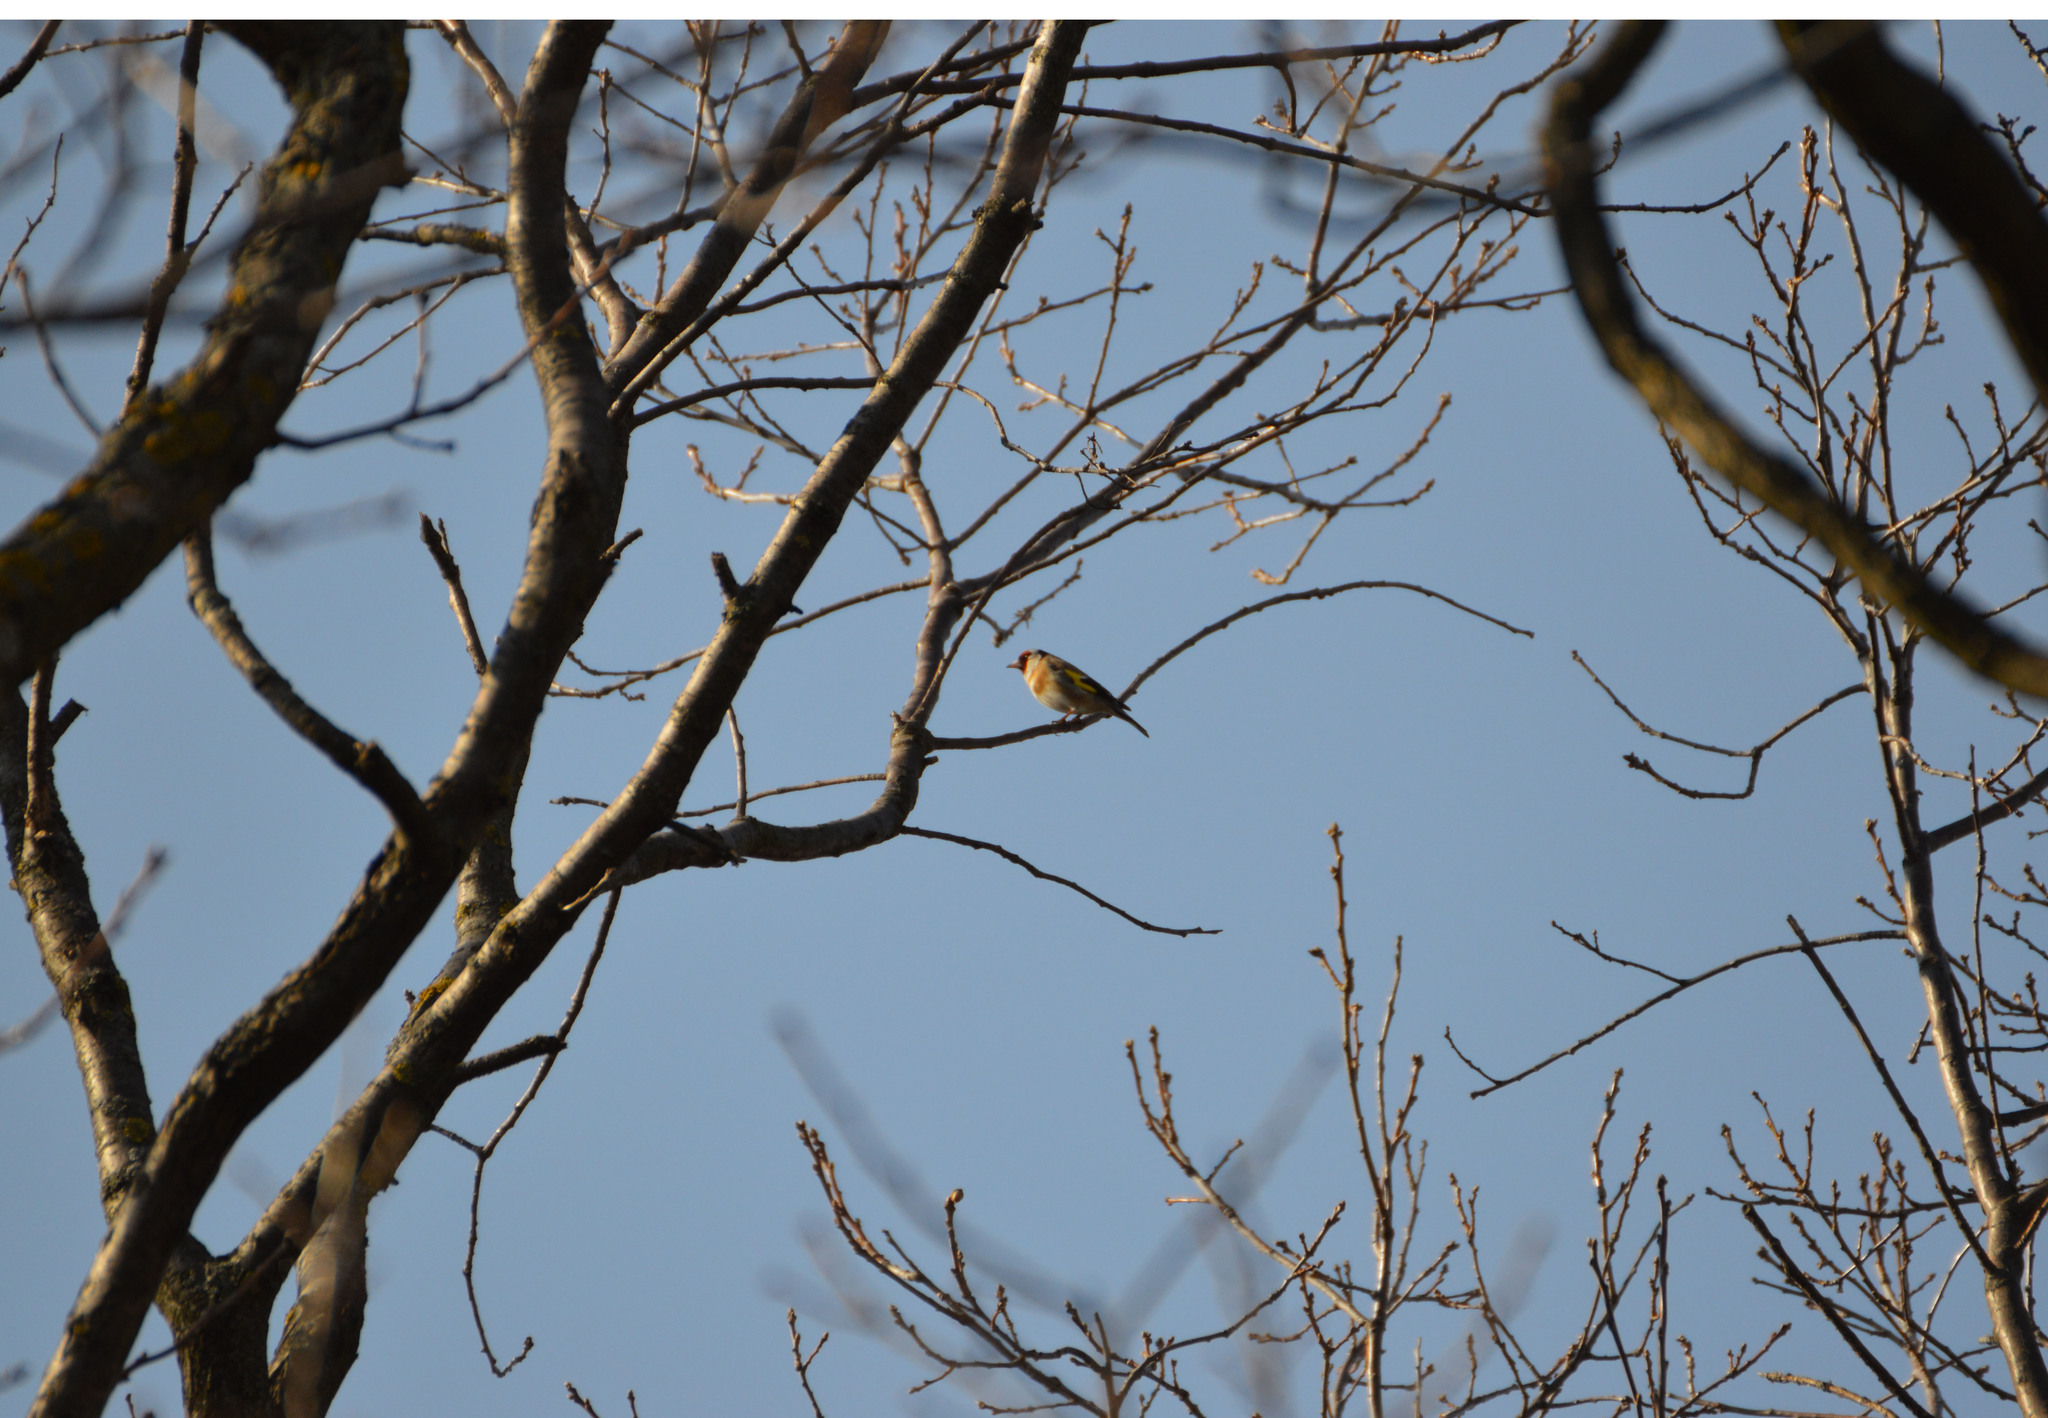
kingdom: Animalia
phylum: Chordata
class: Aves
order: Passeriformes
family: Fringillidae
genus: Carduelis
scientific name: Carduelis carduelis
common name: European goldfinch
